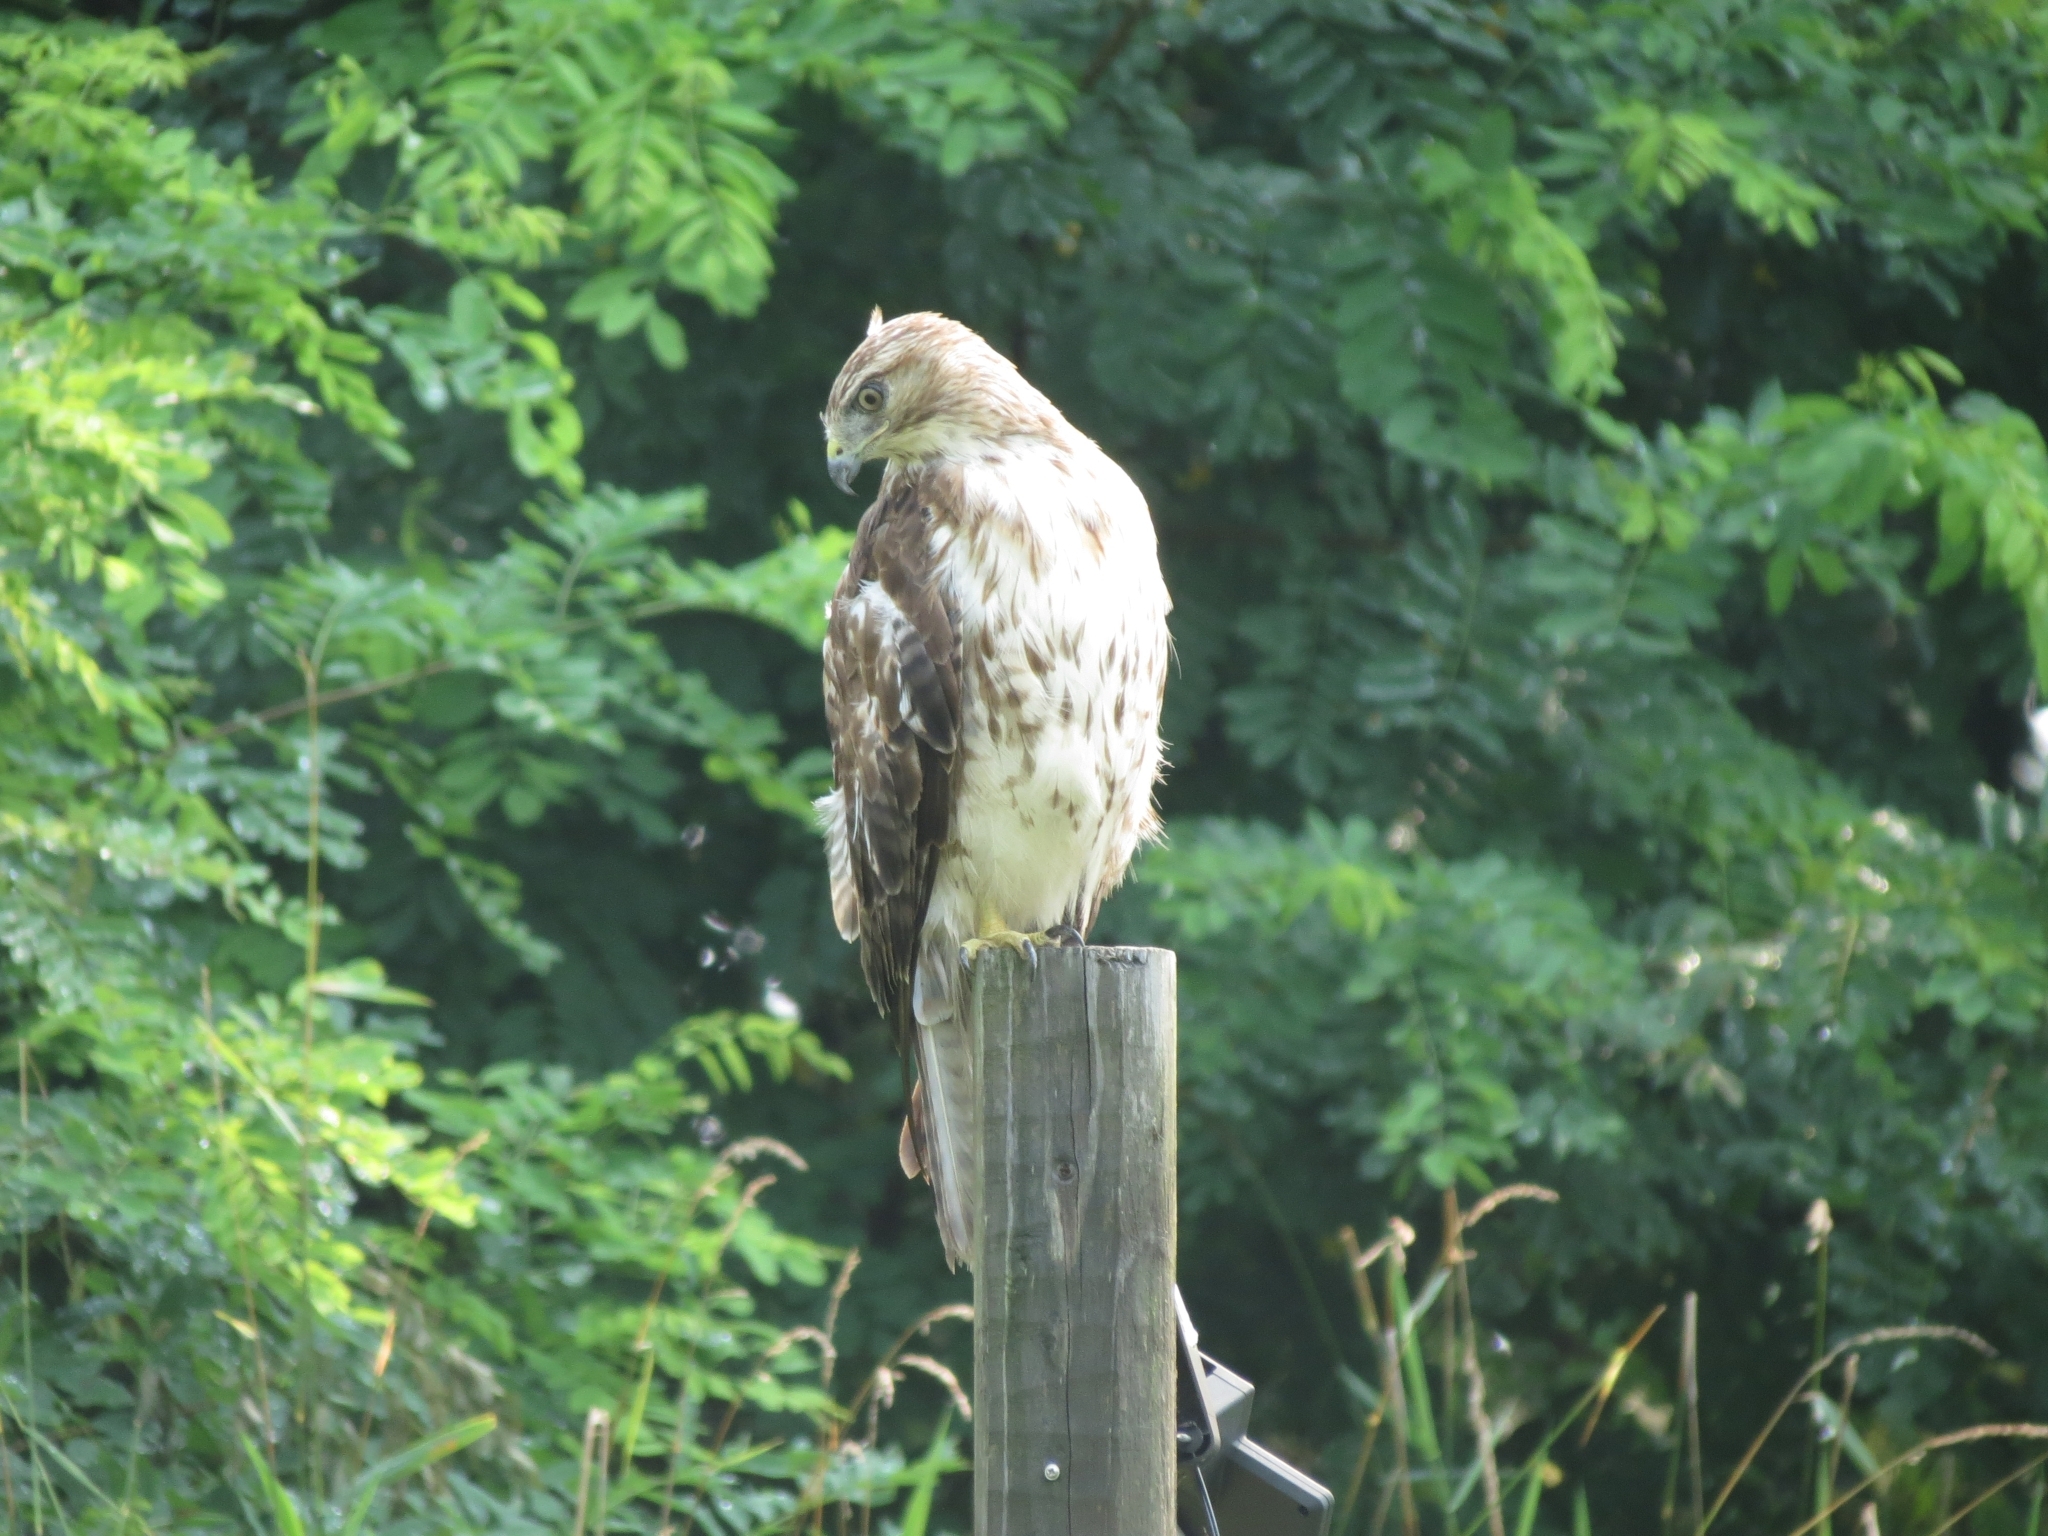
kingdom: Animalia
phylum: Chordata
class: Aves
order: Accipitriformes
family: Accipitridae
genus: Buteo
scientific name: Buteo jamaicensis
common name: Red-tailed hawk
